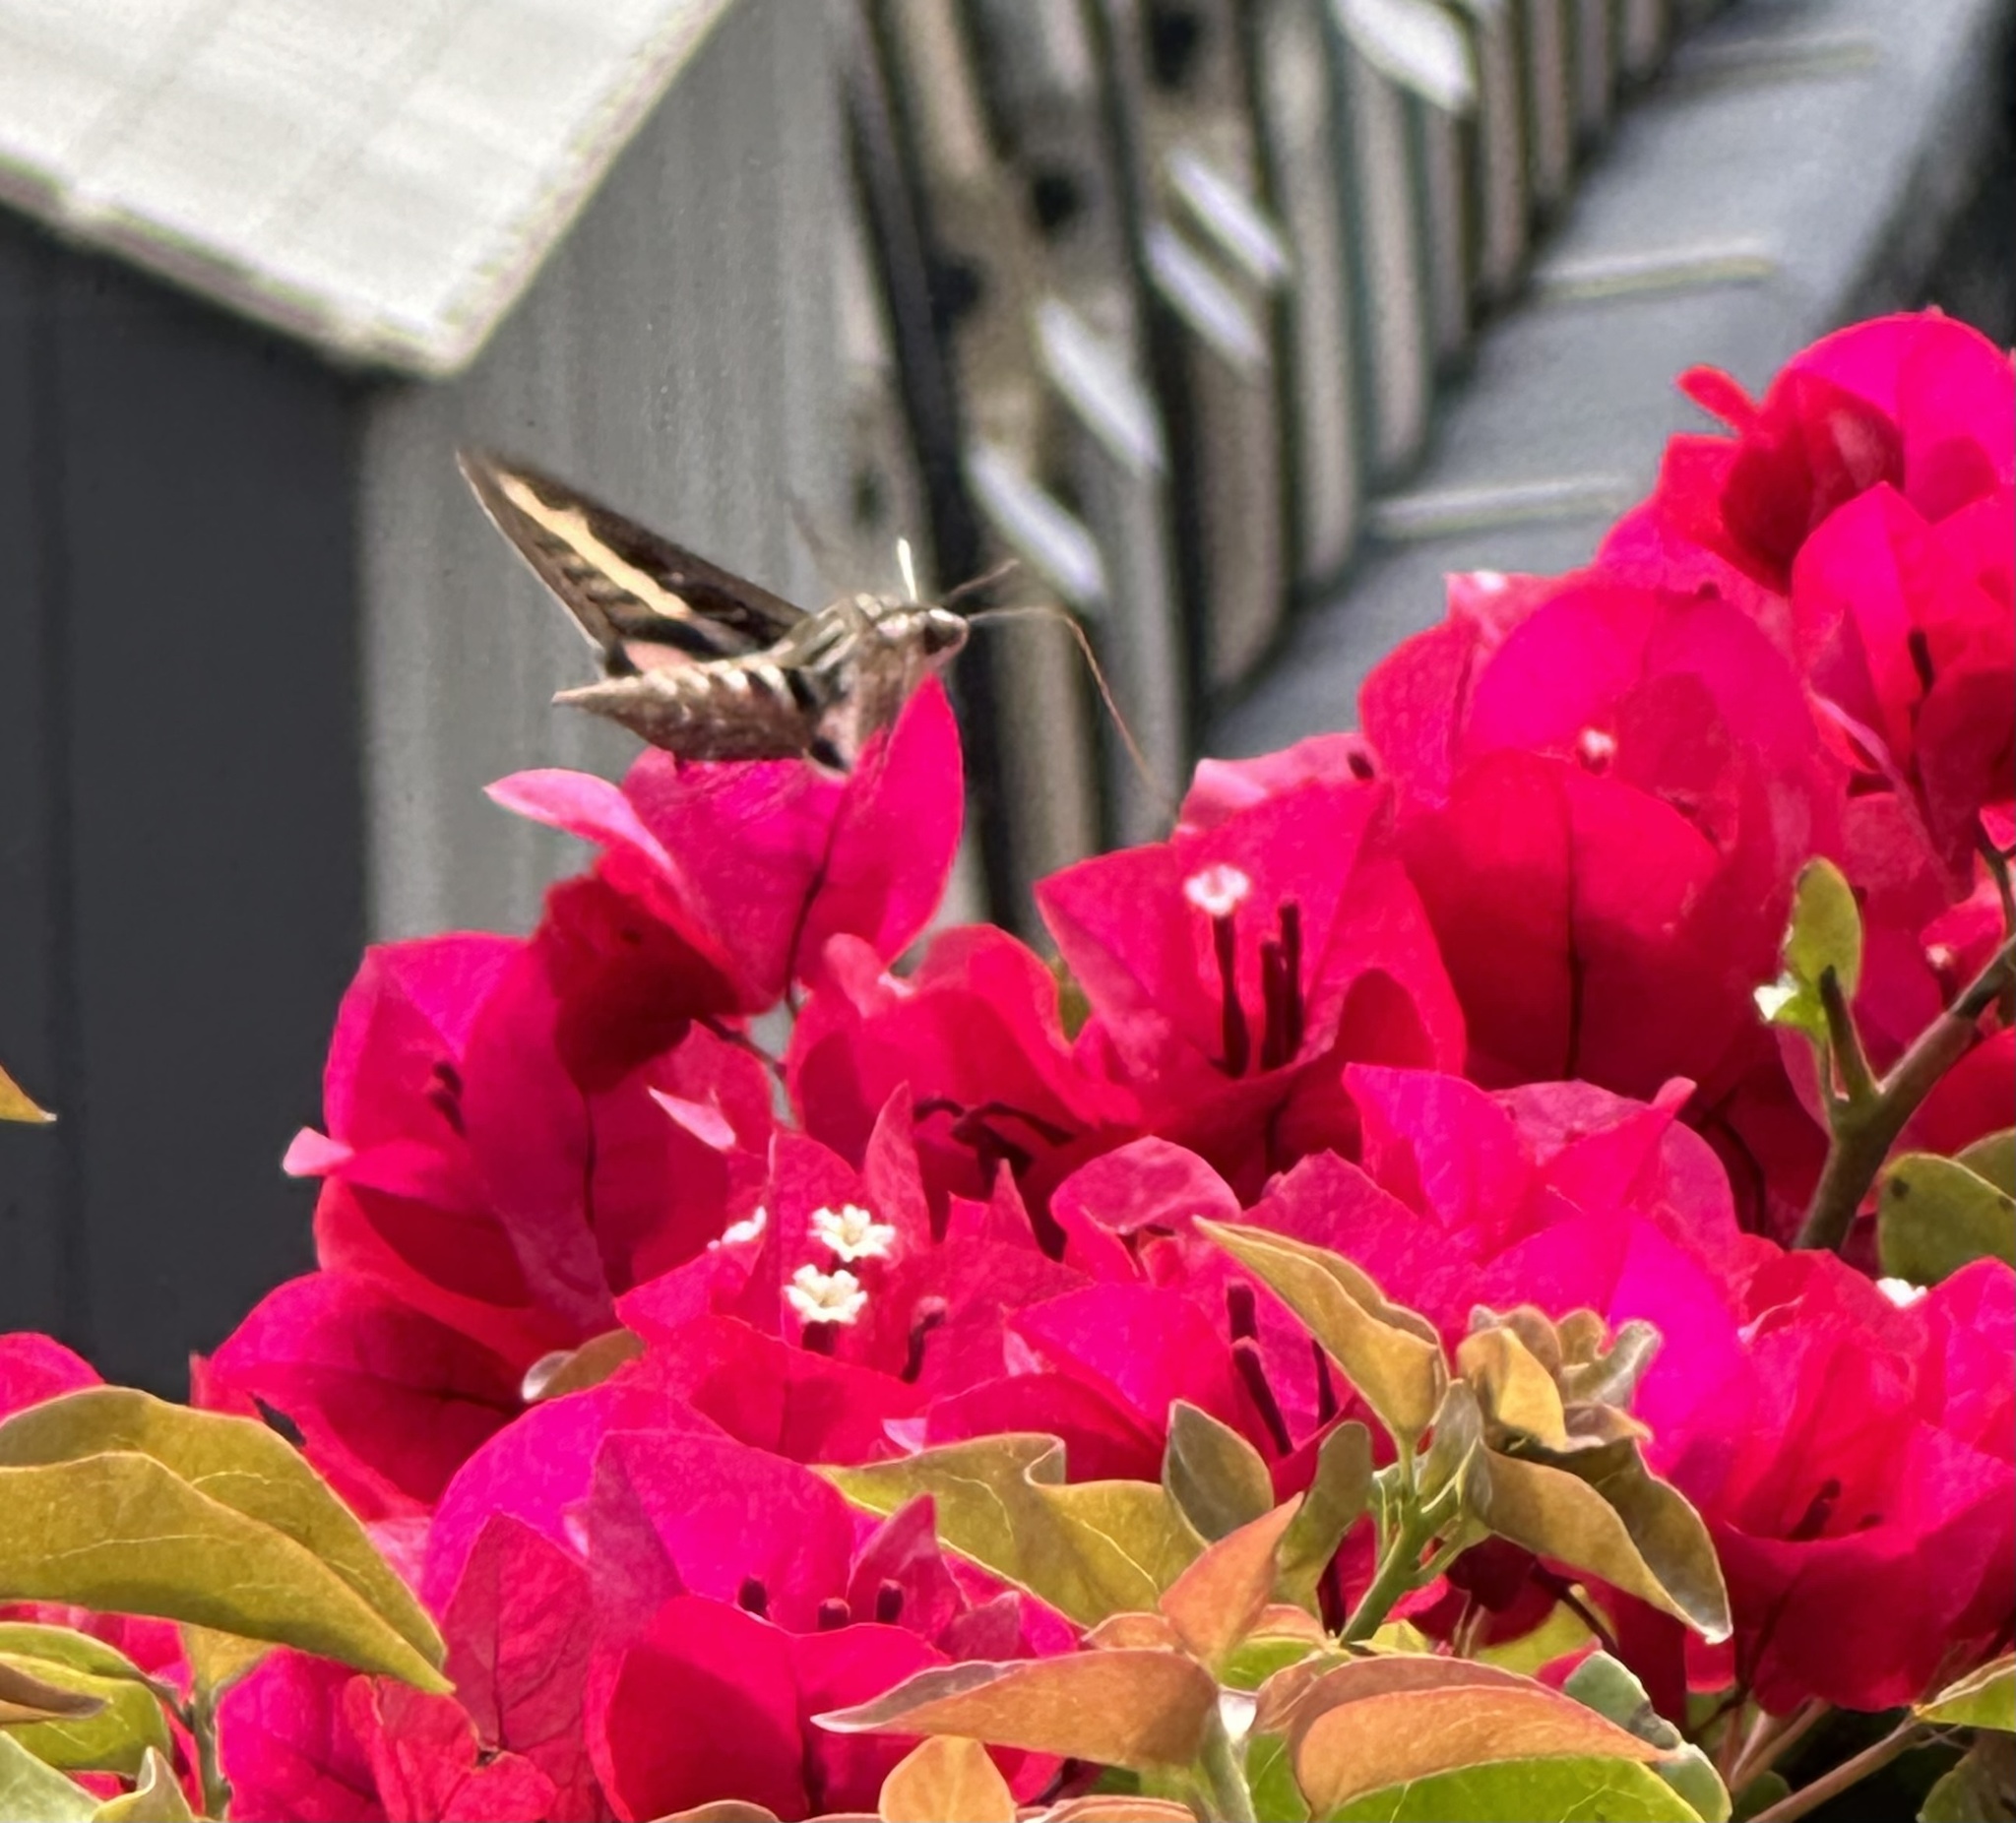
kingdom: Animalia
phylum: Arthropoda
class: Insecta
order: Lepidoptera
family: Sphingidae
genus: Hyles
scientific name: Hyles lineata
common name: White-lined sphinx
